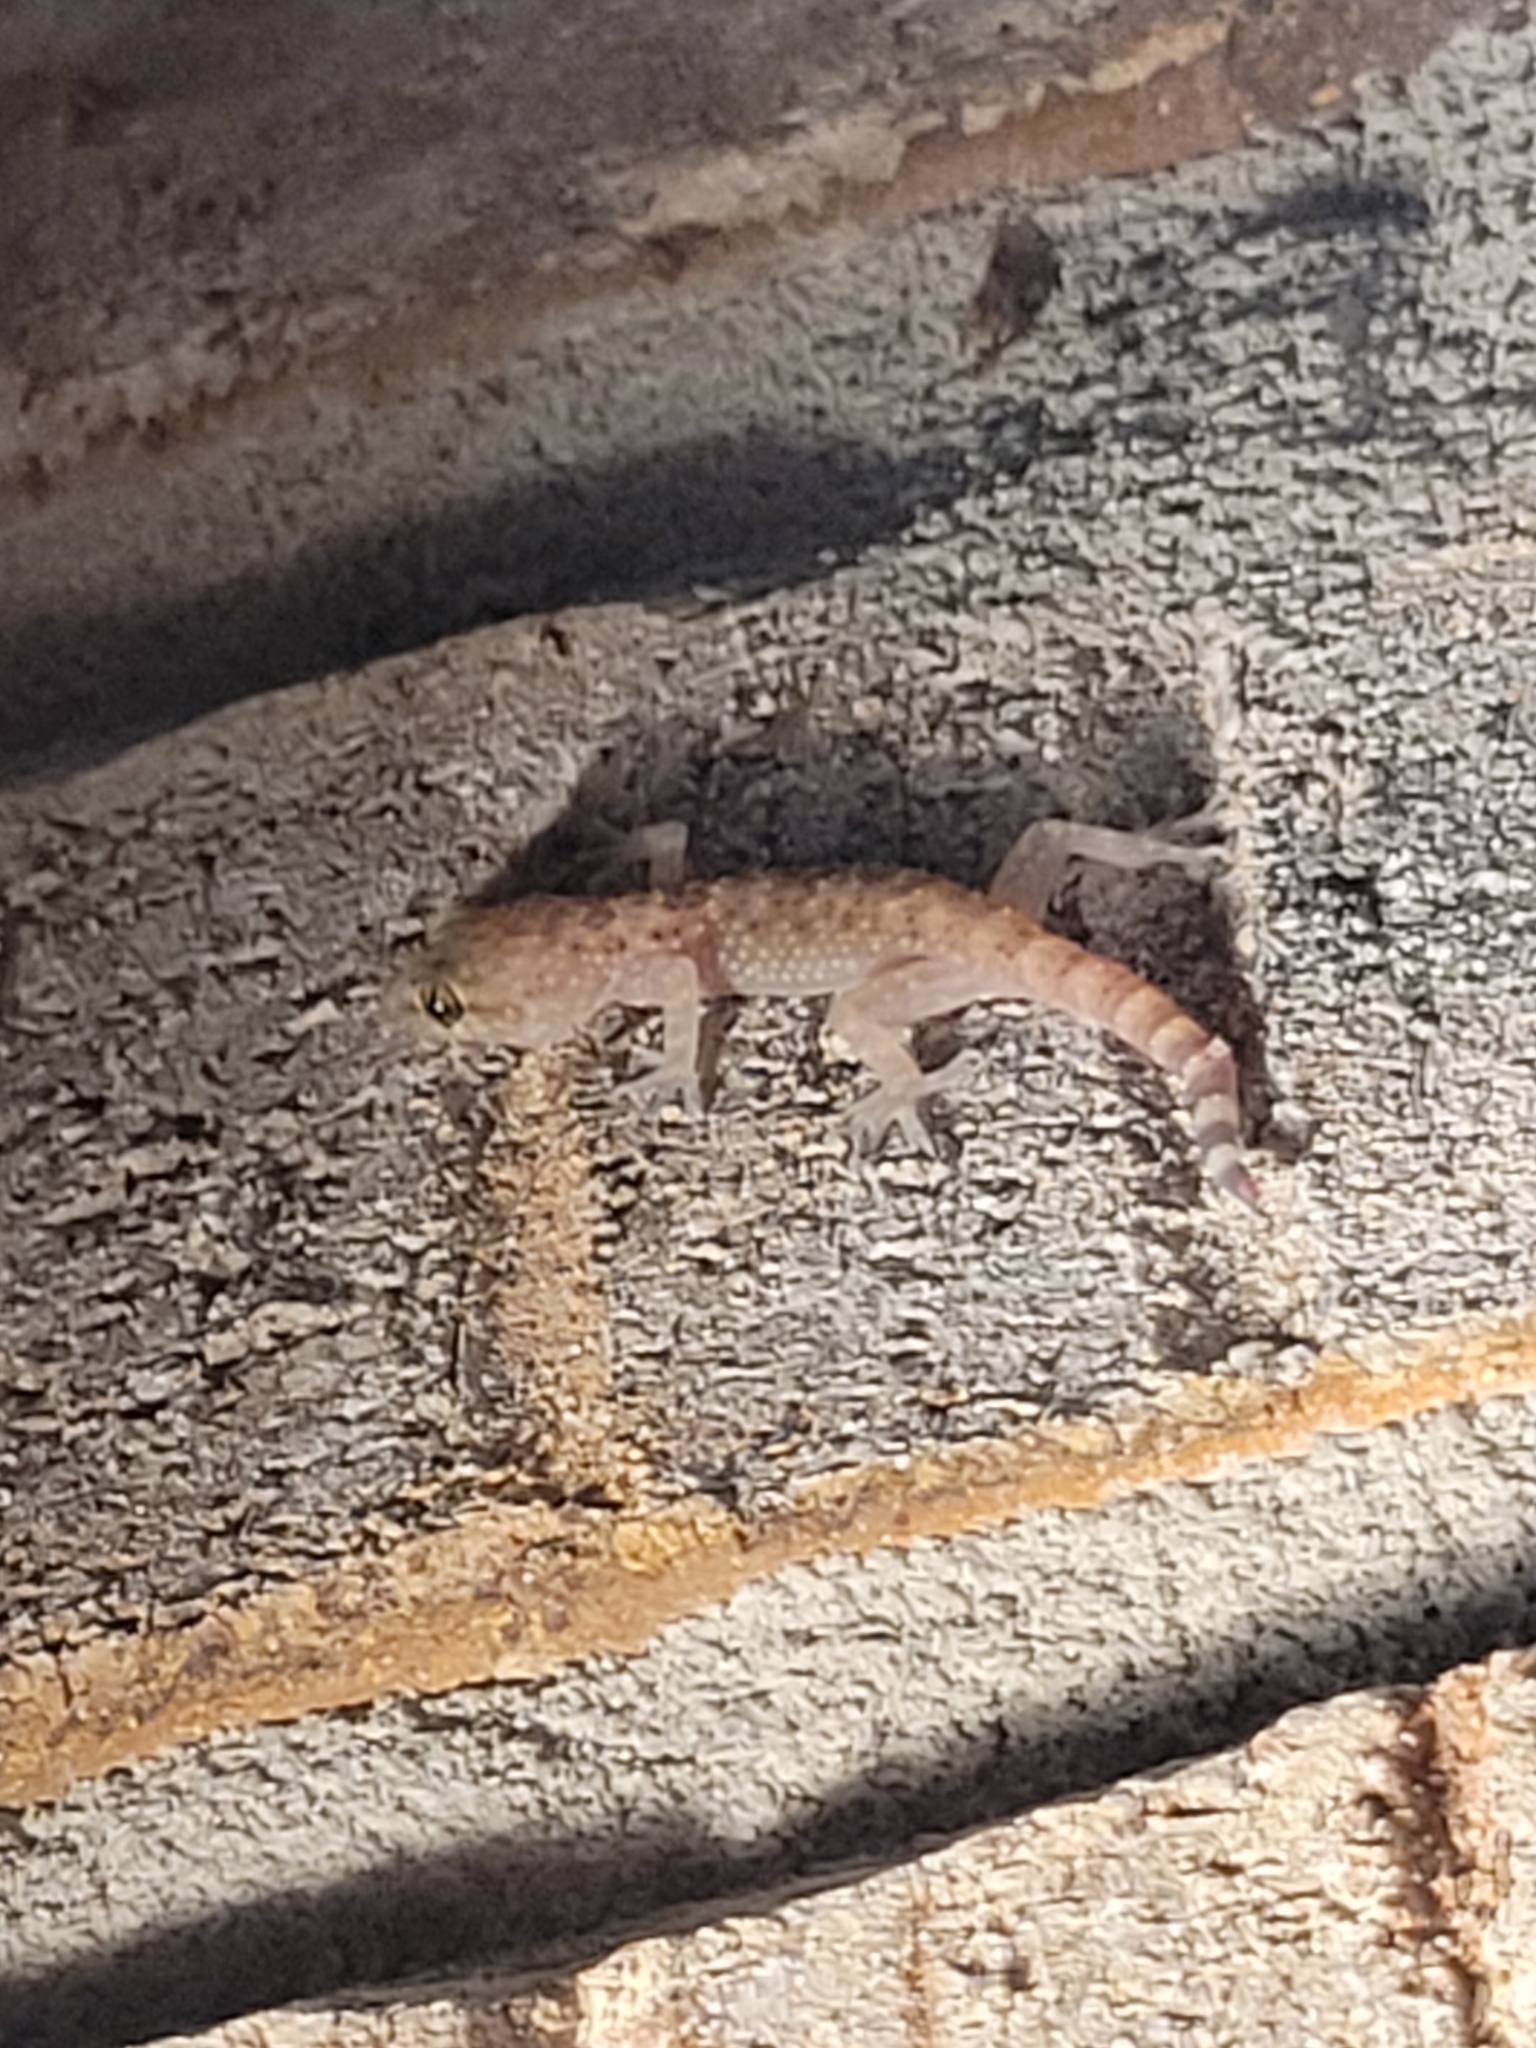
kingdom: Animalia
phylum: Chordata
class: Squamata
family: Gekkonidae
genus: Hemidactylus
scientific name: Hemidactylus turcicus
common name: Turkish gecko
